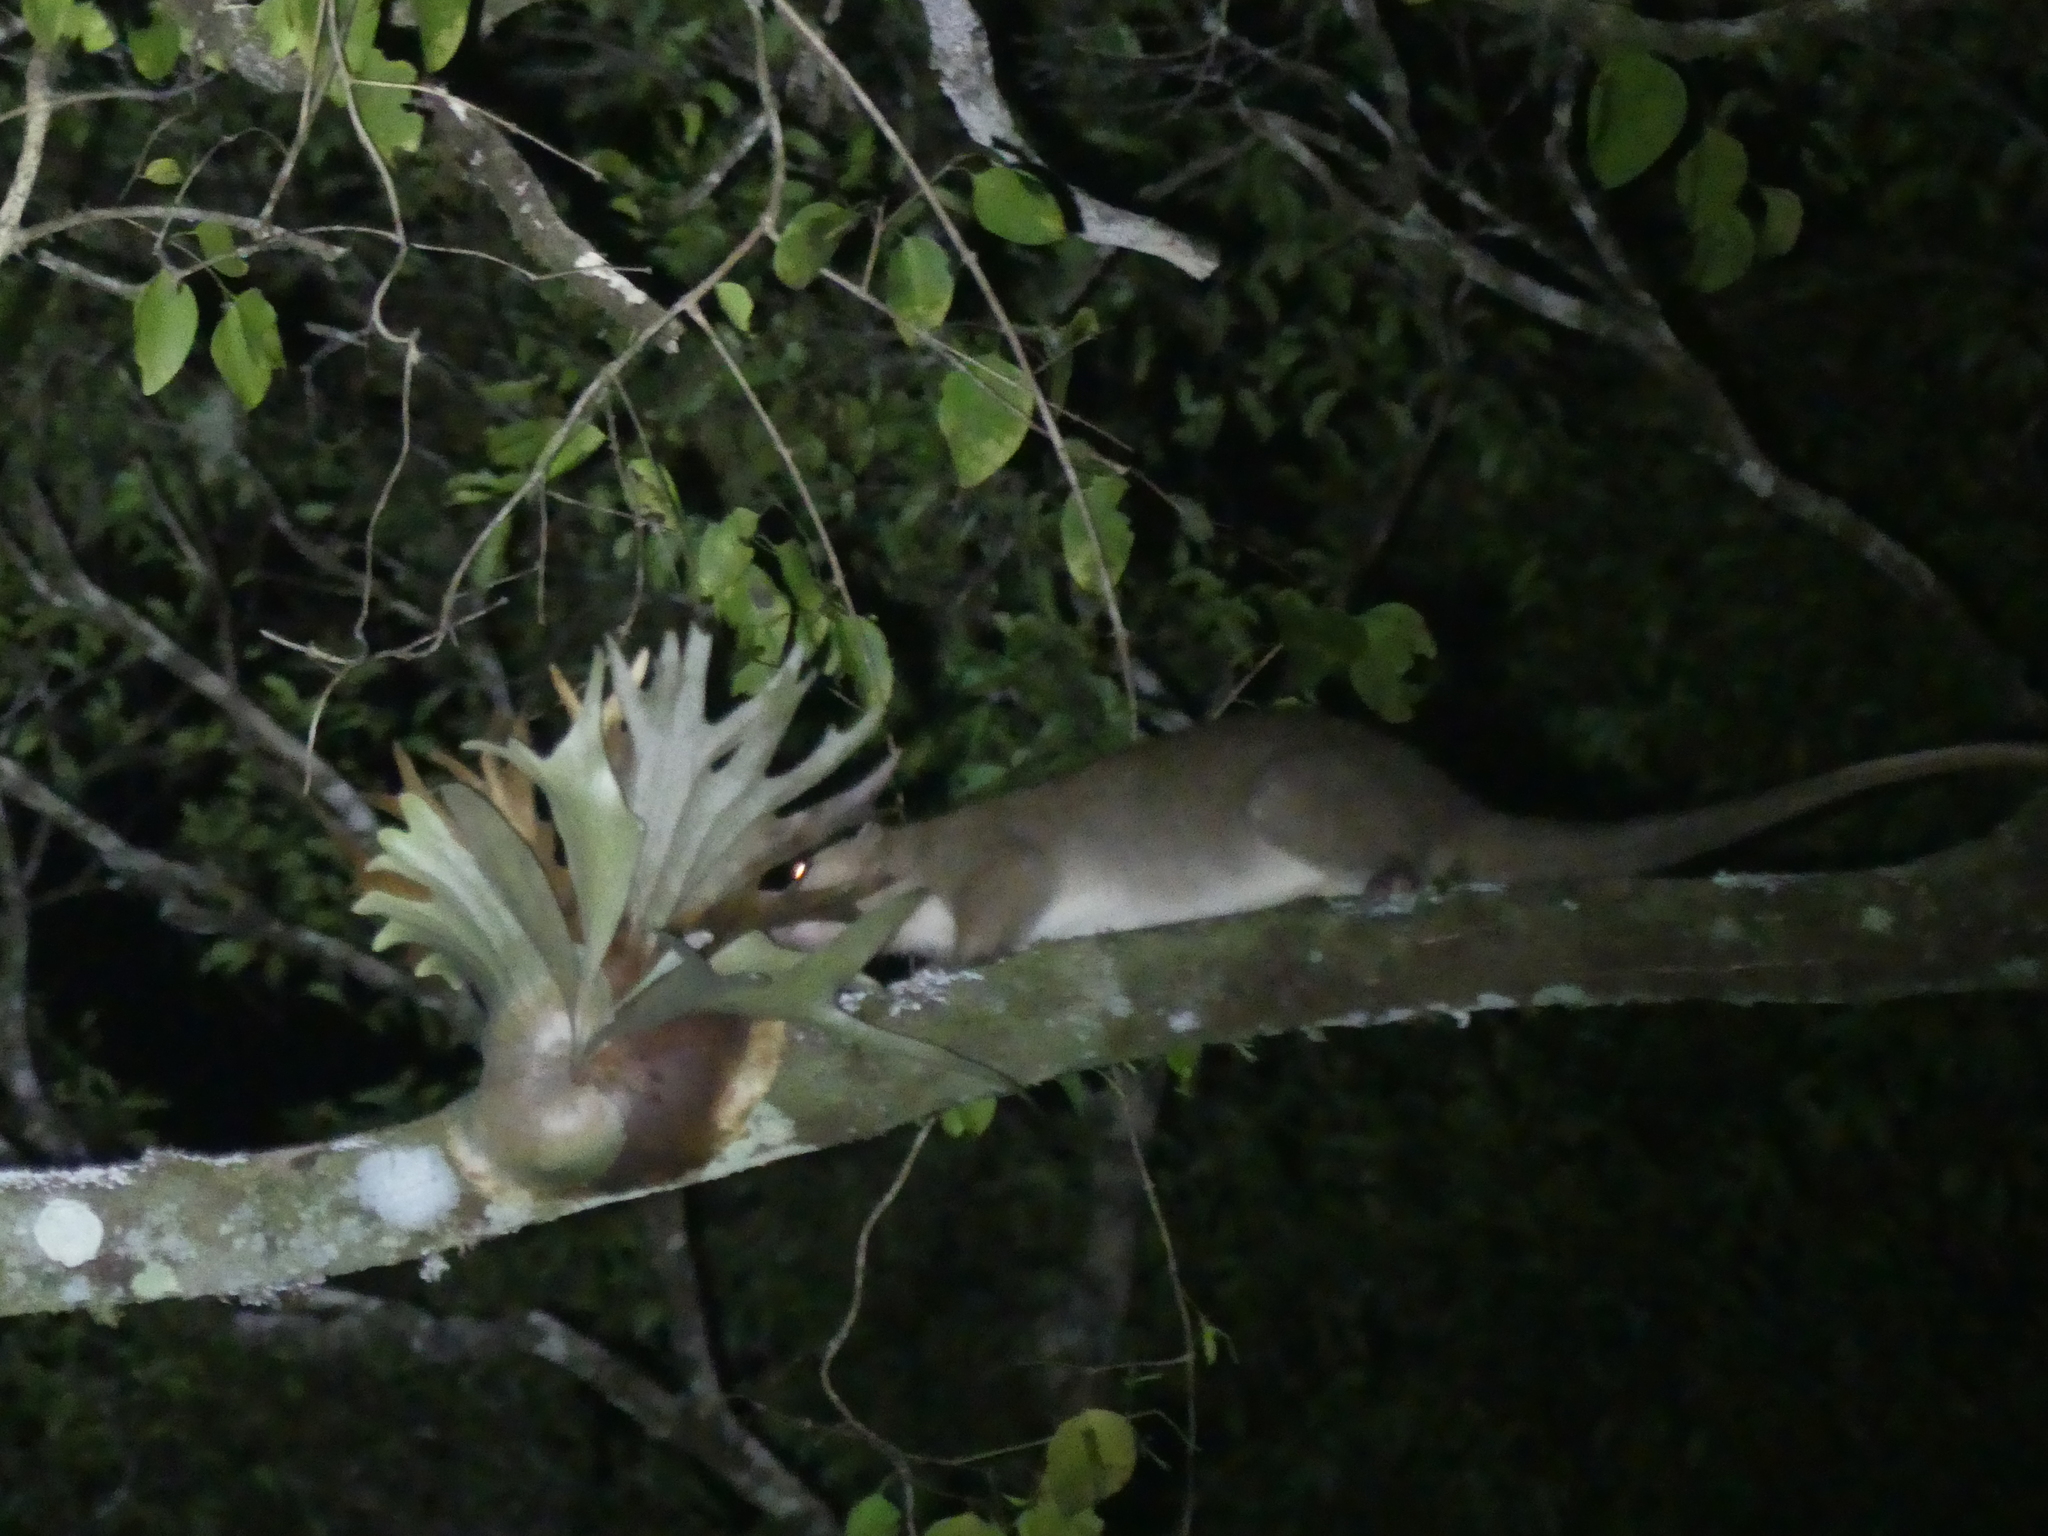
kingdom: Animalia
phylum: Chordata
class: Mammalia
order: Diprotodontia
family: Pseudocheiridae
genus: Pseudochirulus
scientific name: Pseudochirulus cinereus
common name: Cinereous ringtail
